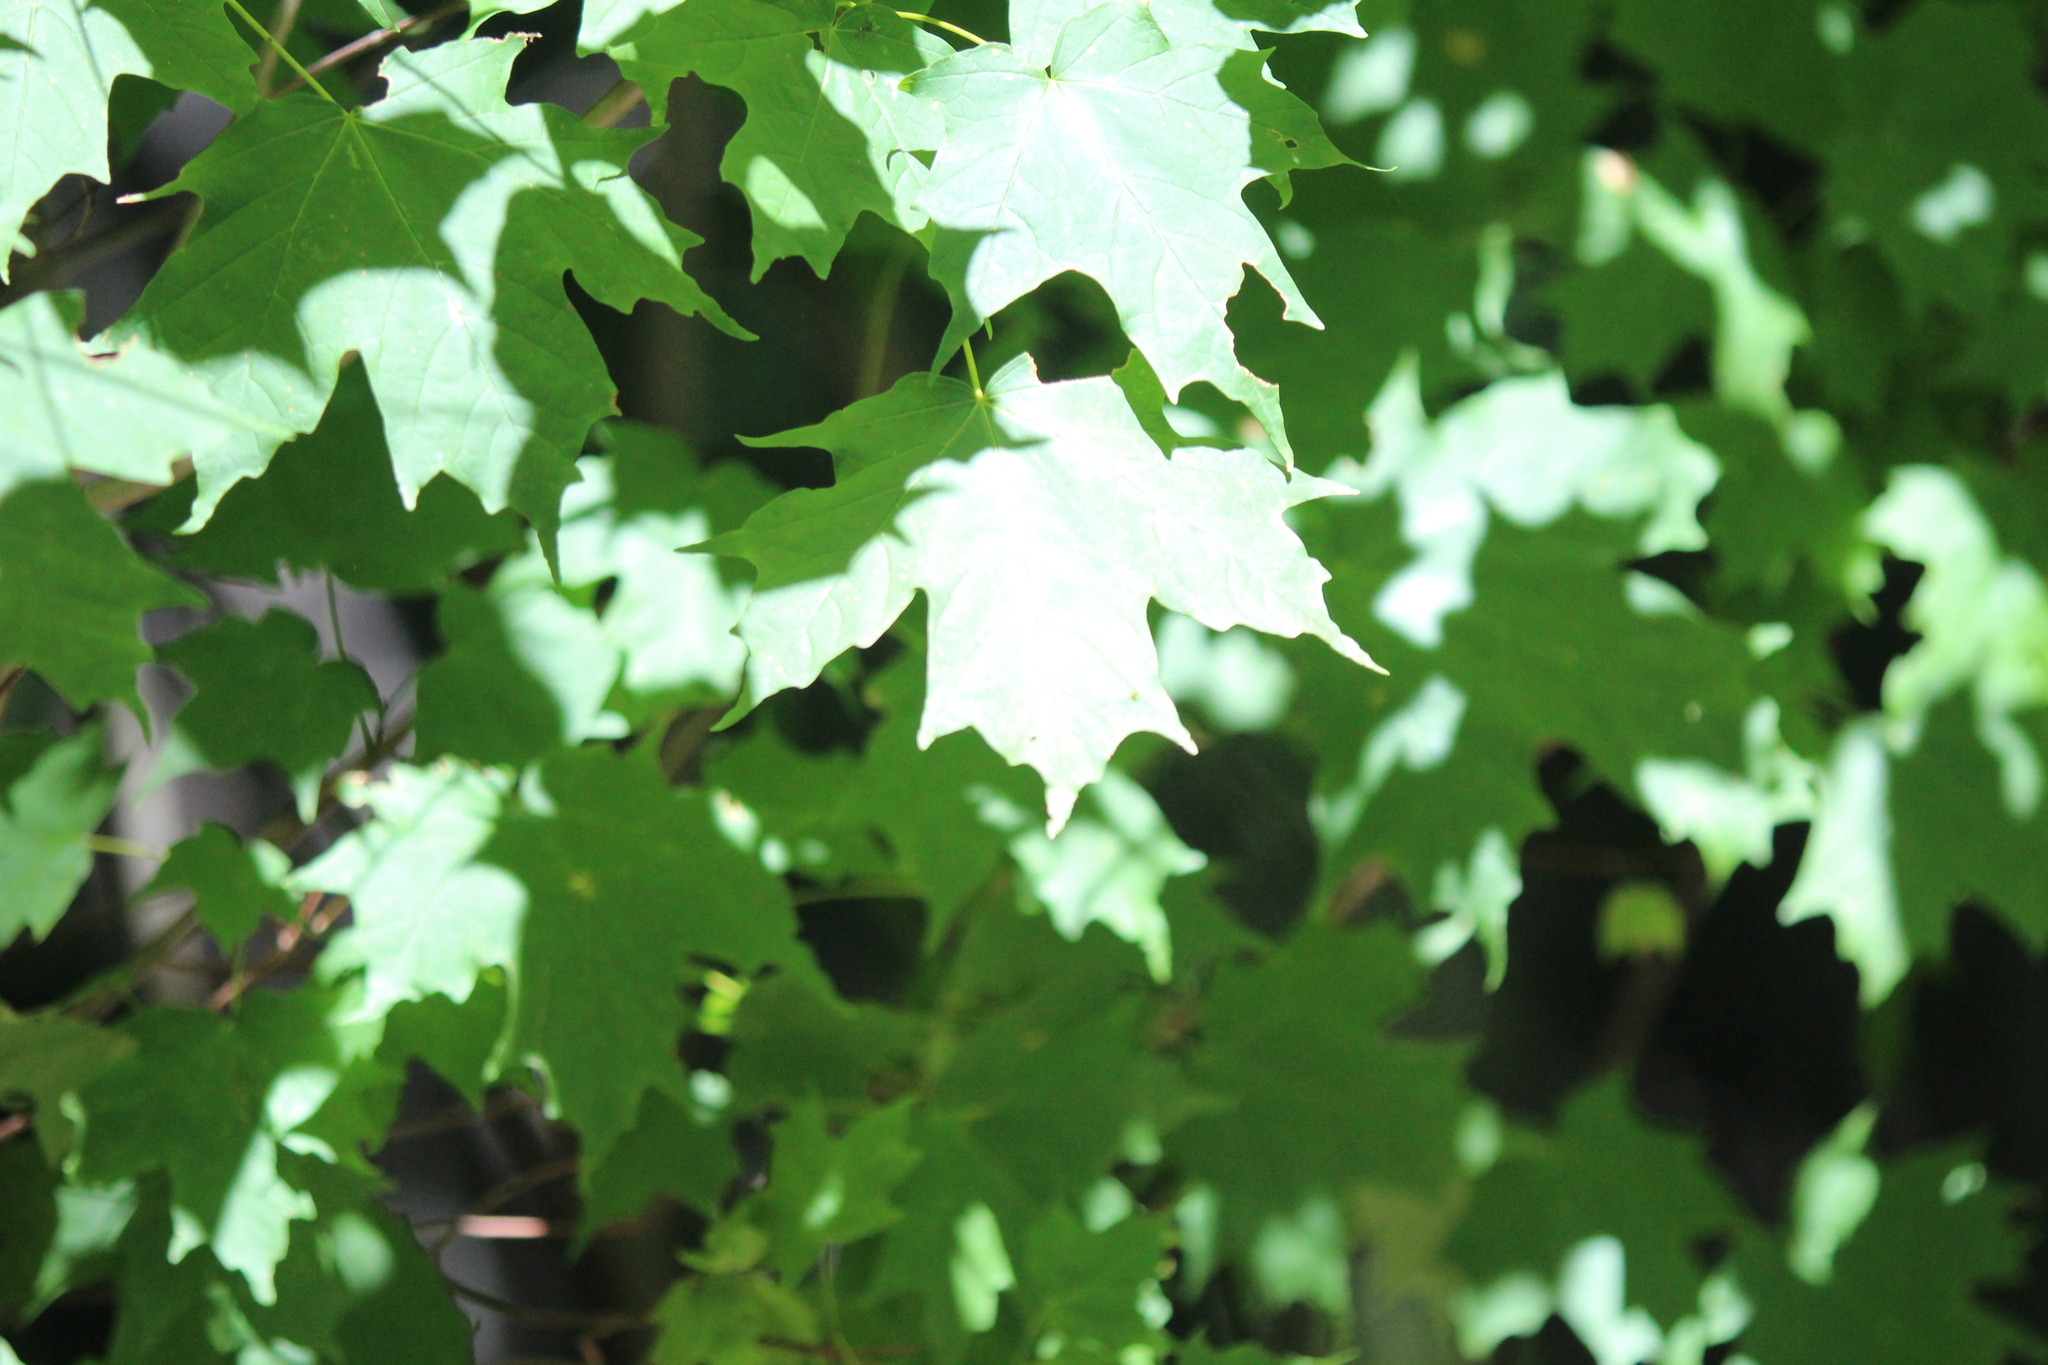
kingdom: Plantae
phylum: Tracheophyta
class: Magnoliopsida
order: Sapindales
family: Sapindaceae
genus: Acer
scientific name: Acer saccharum
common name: Sugar maple
